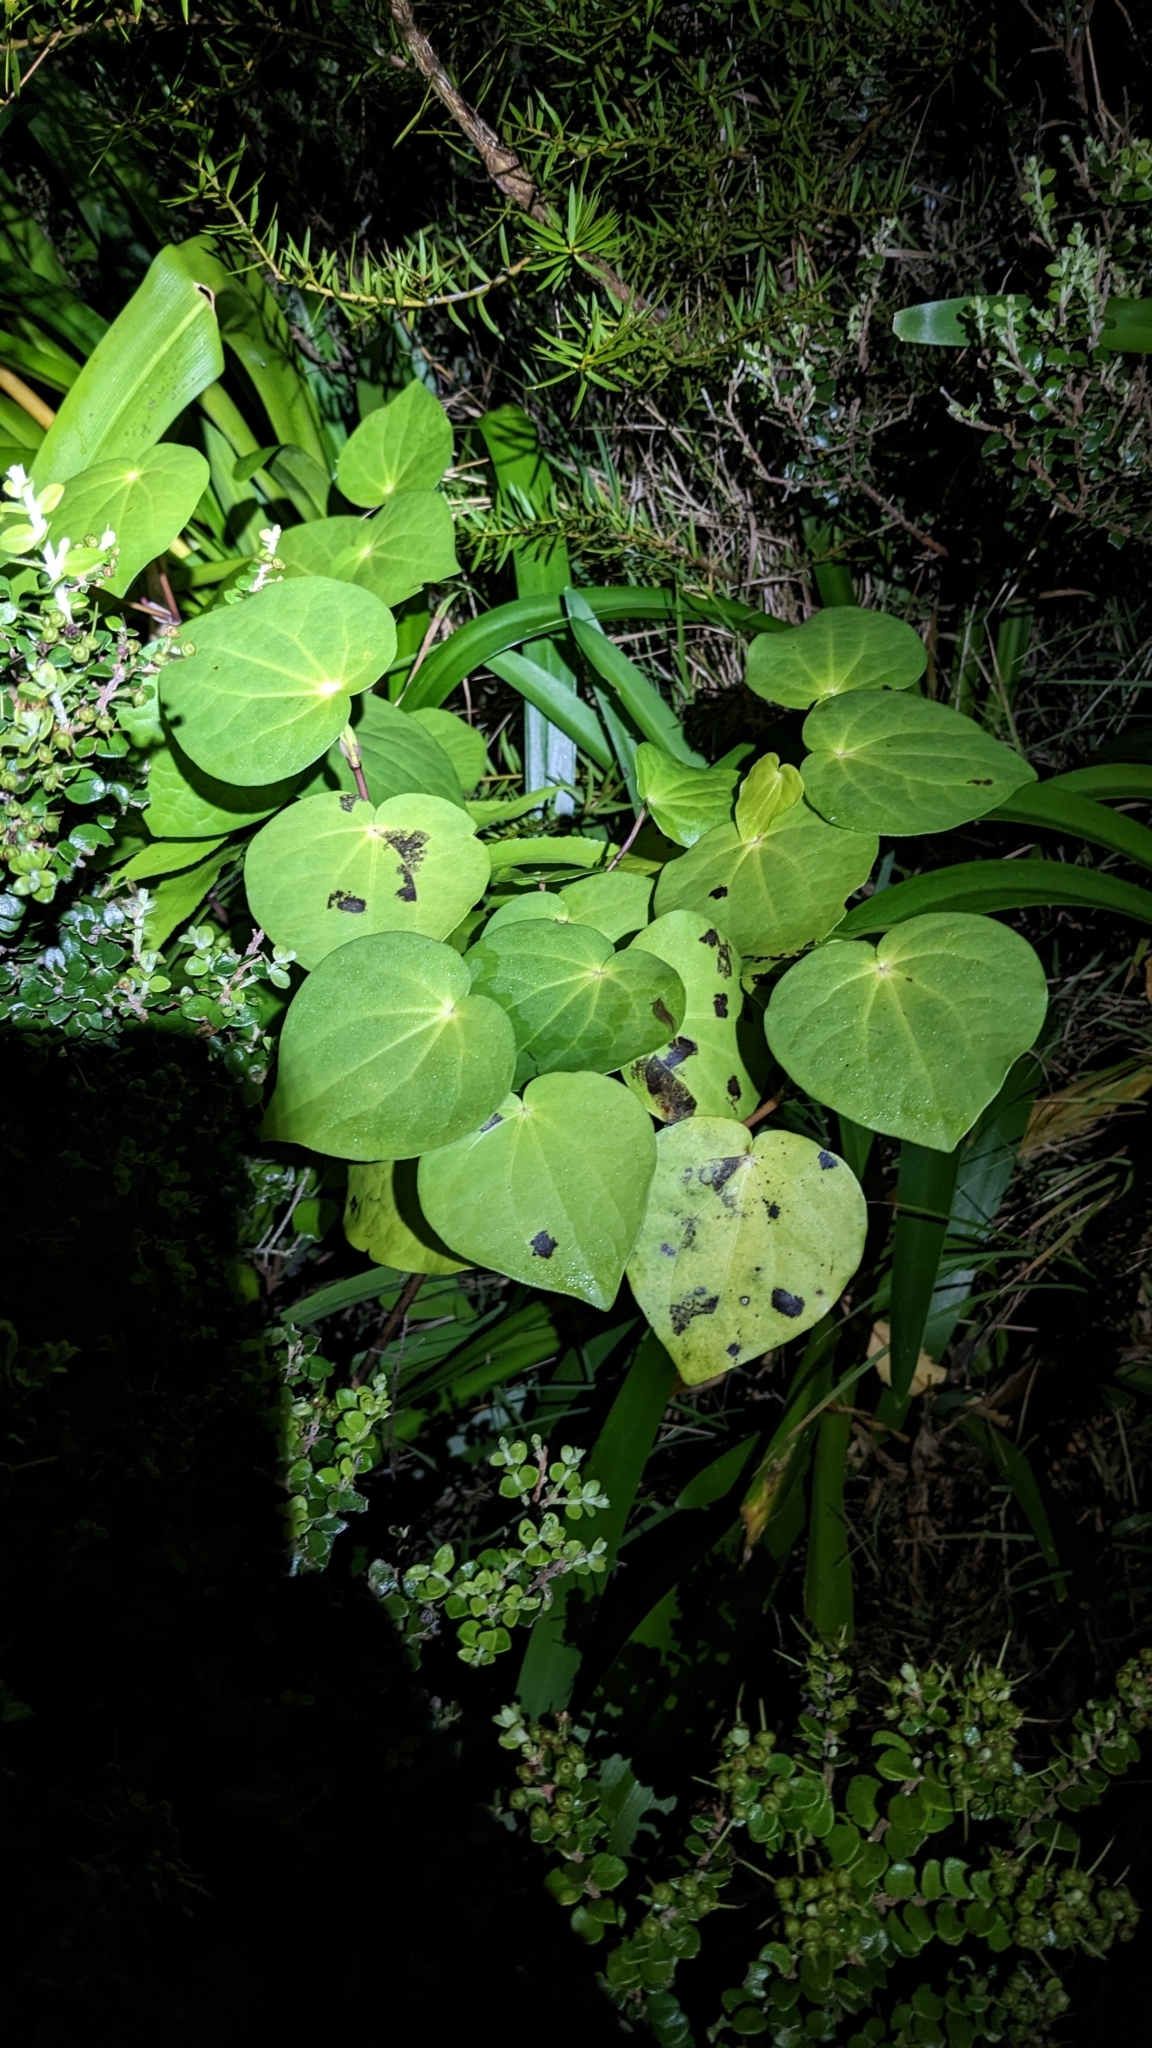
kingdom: Plantae
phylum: Tracheophyta
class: Magnoliopsida
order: Piperales
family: Piperaceae
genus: Macropiper
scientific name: Macropiper excelsum
